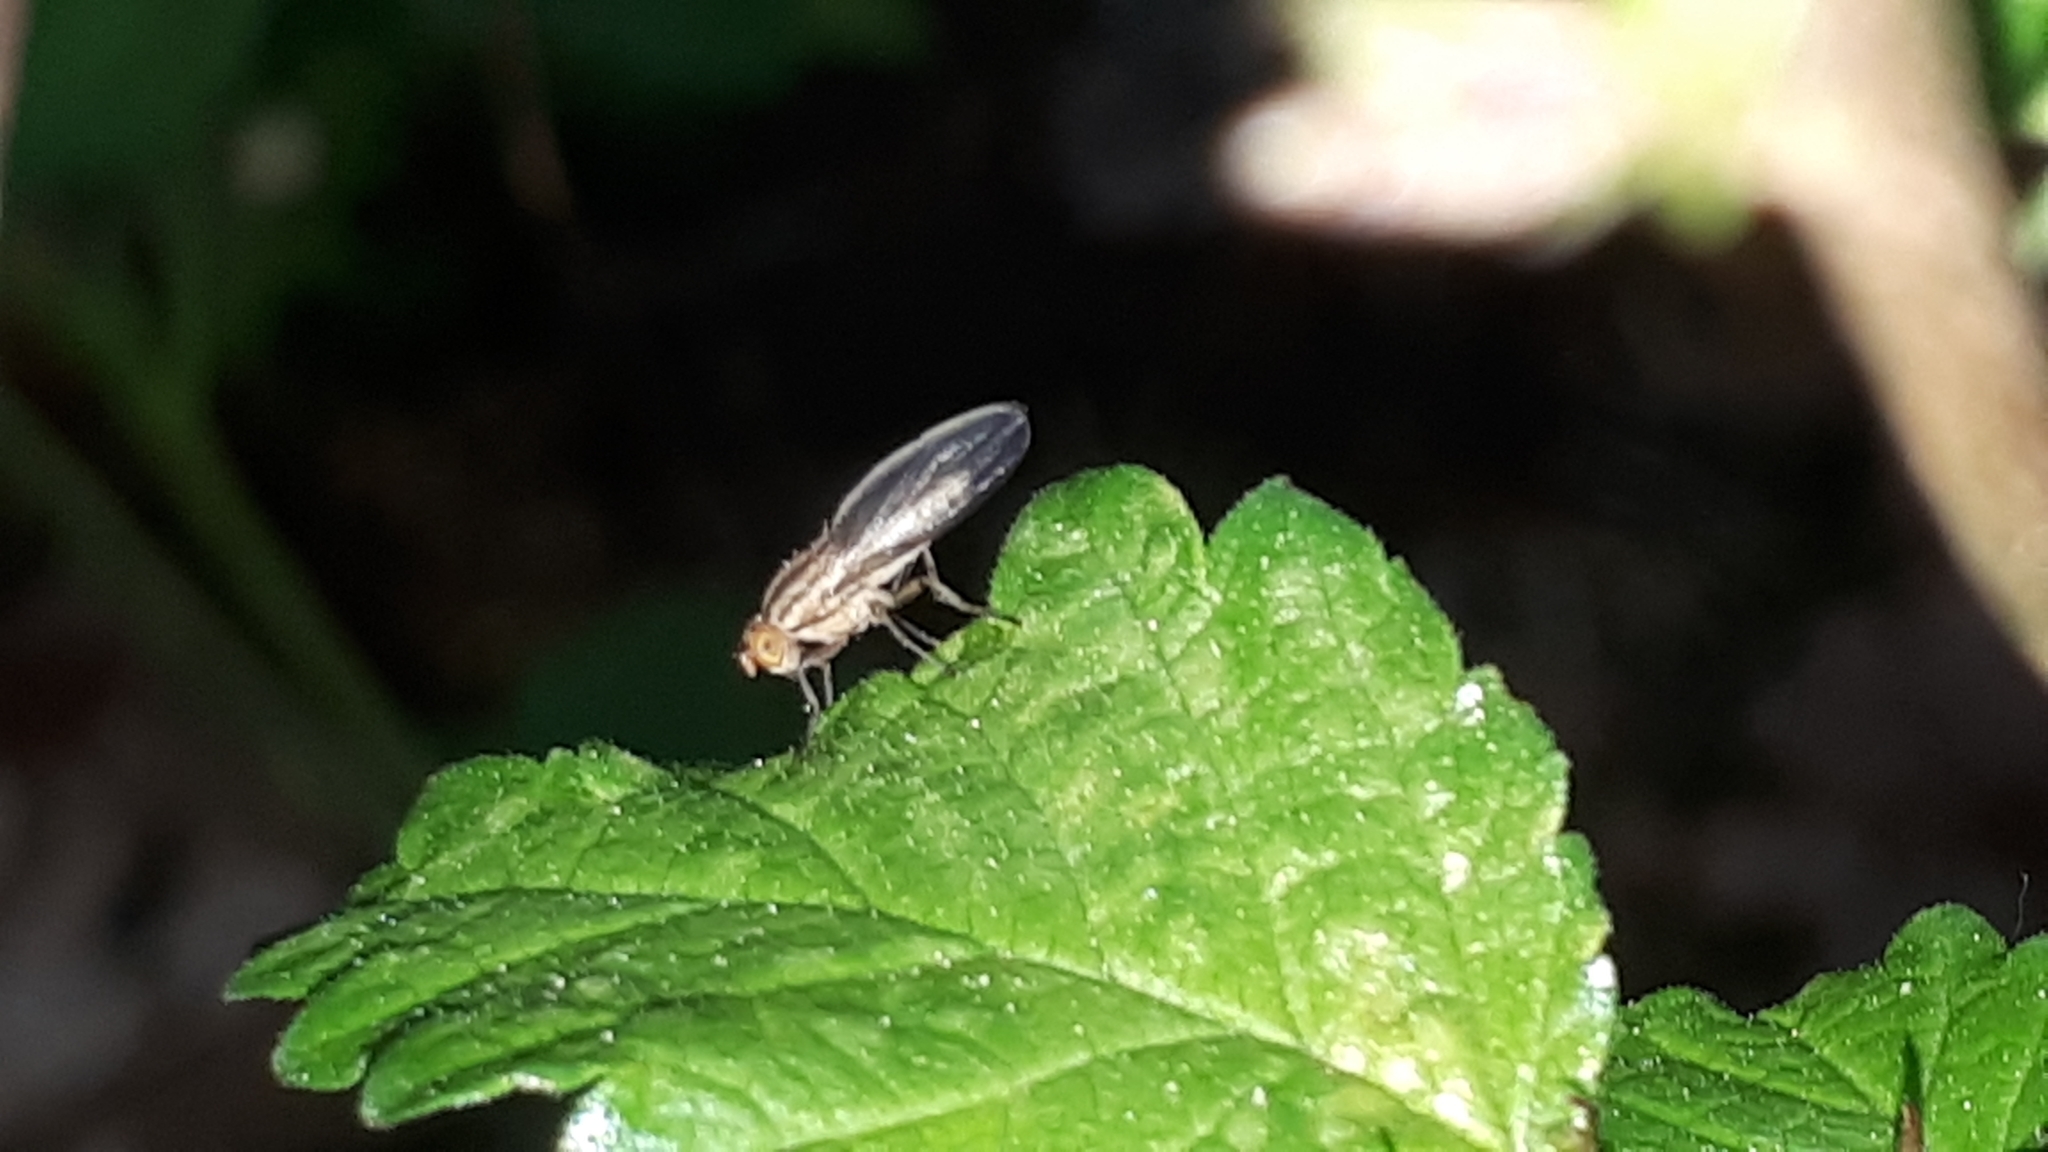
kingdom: Animalia
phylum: Arthropoda
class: Insecta
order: Diptera
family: Lauxaniidae
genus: Peplomyza
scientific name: Peplomyza discoidea
